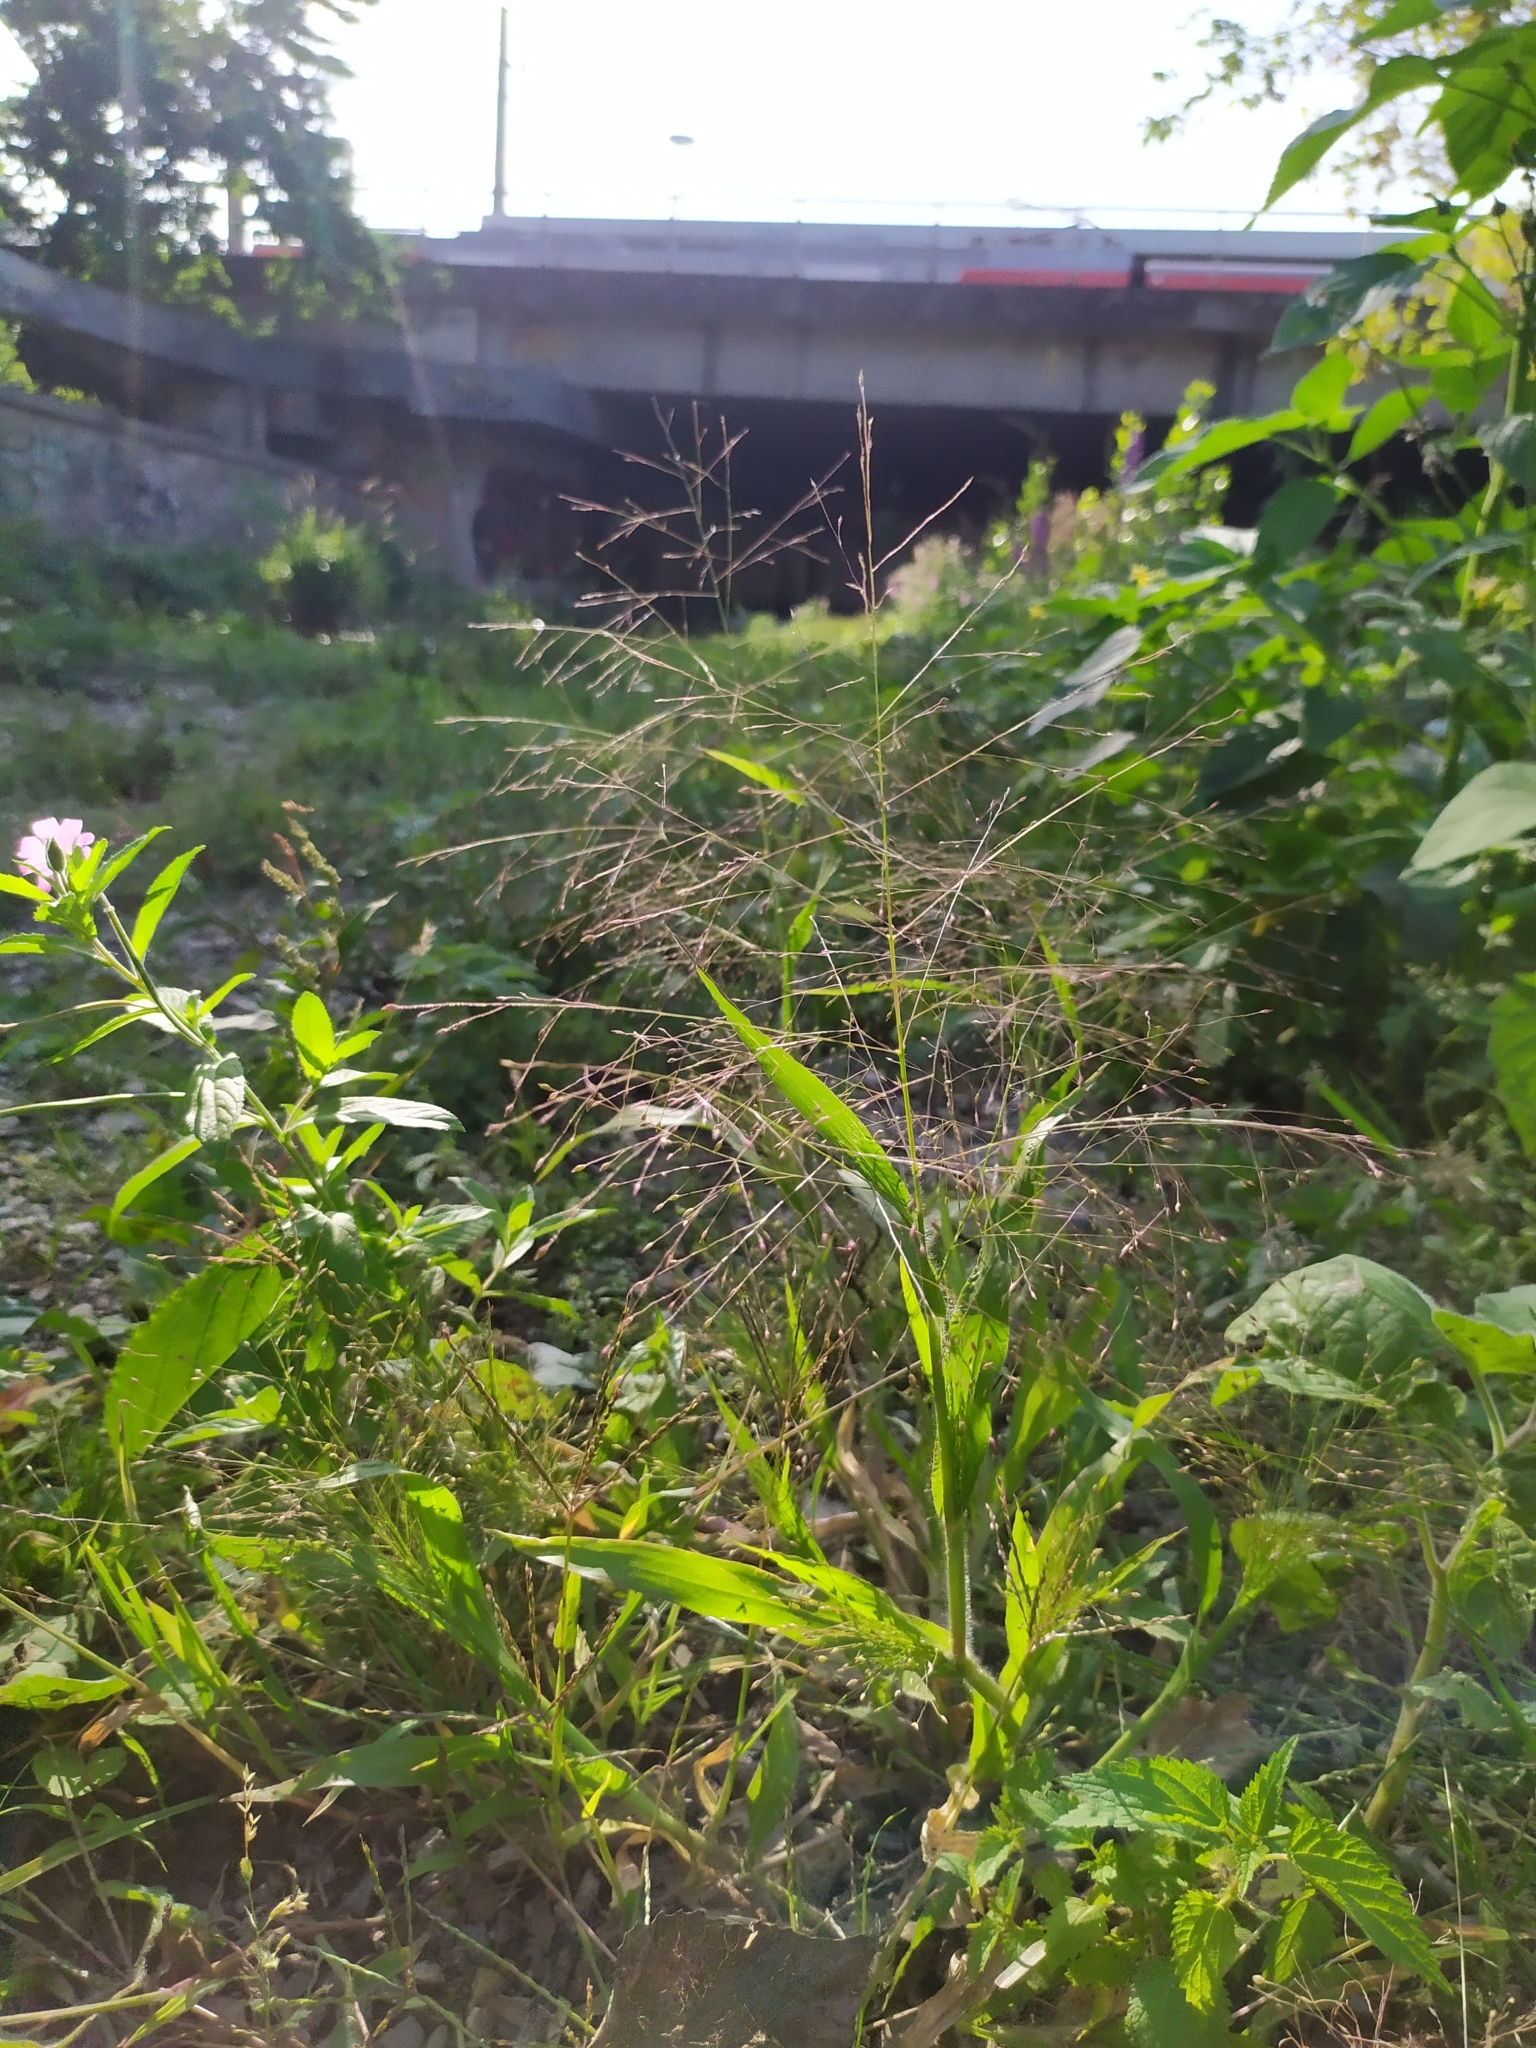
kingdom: Plantae
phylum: Tracheophyta
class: Liliopsida
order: Poales
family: Poaceae
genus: Panicum
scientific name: Panicum capillare
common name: Witch-grass
